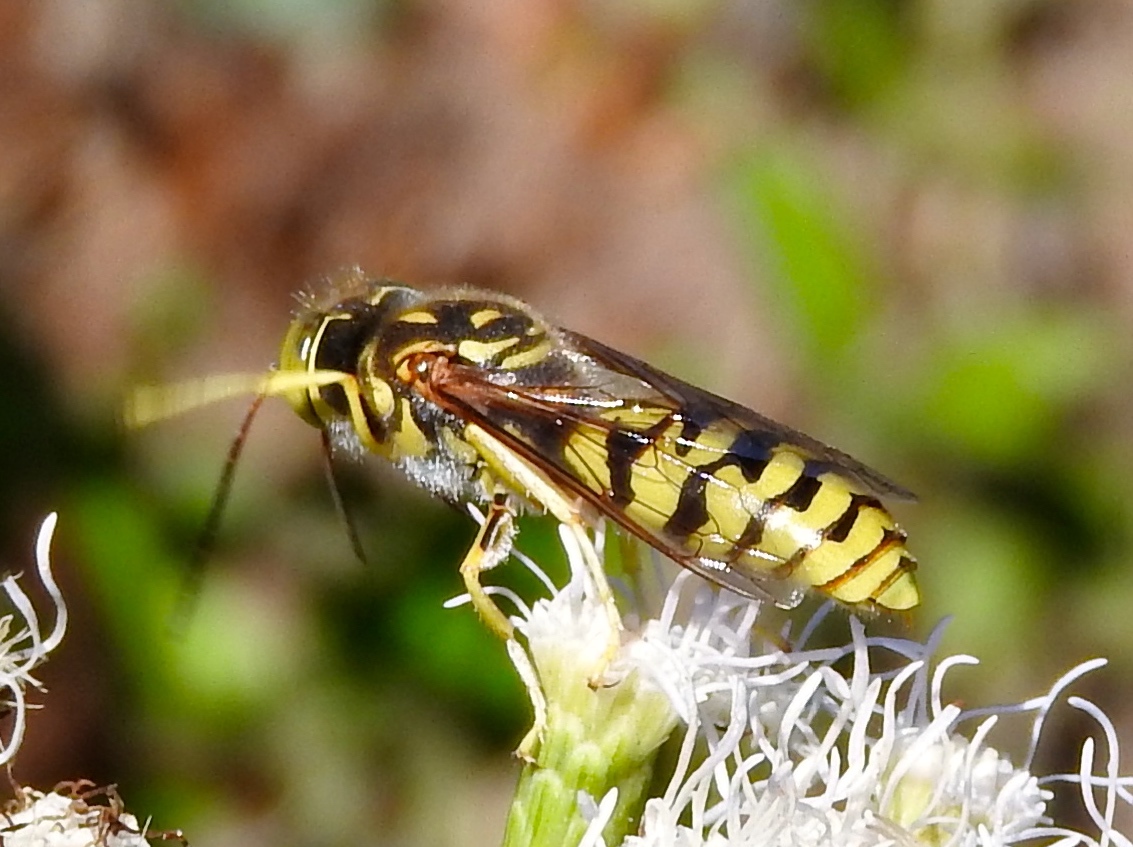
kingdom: Animalia
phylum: Arthropoda
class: Insecta
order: Hymenoptera
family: Crabronidae
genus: Glenostictia
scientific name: Glenostictia
